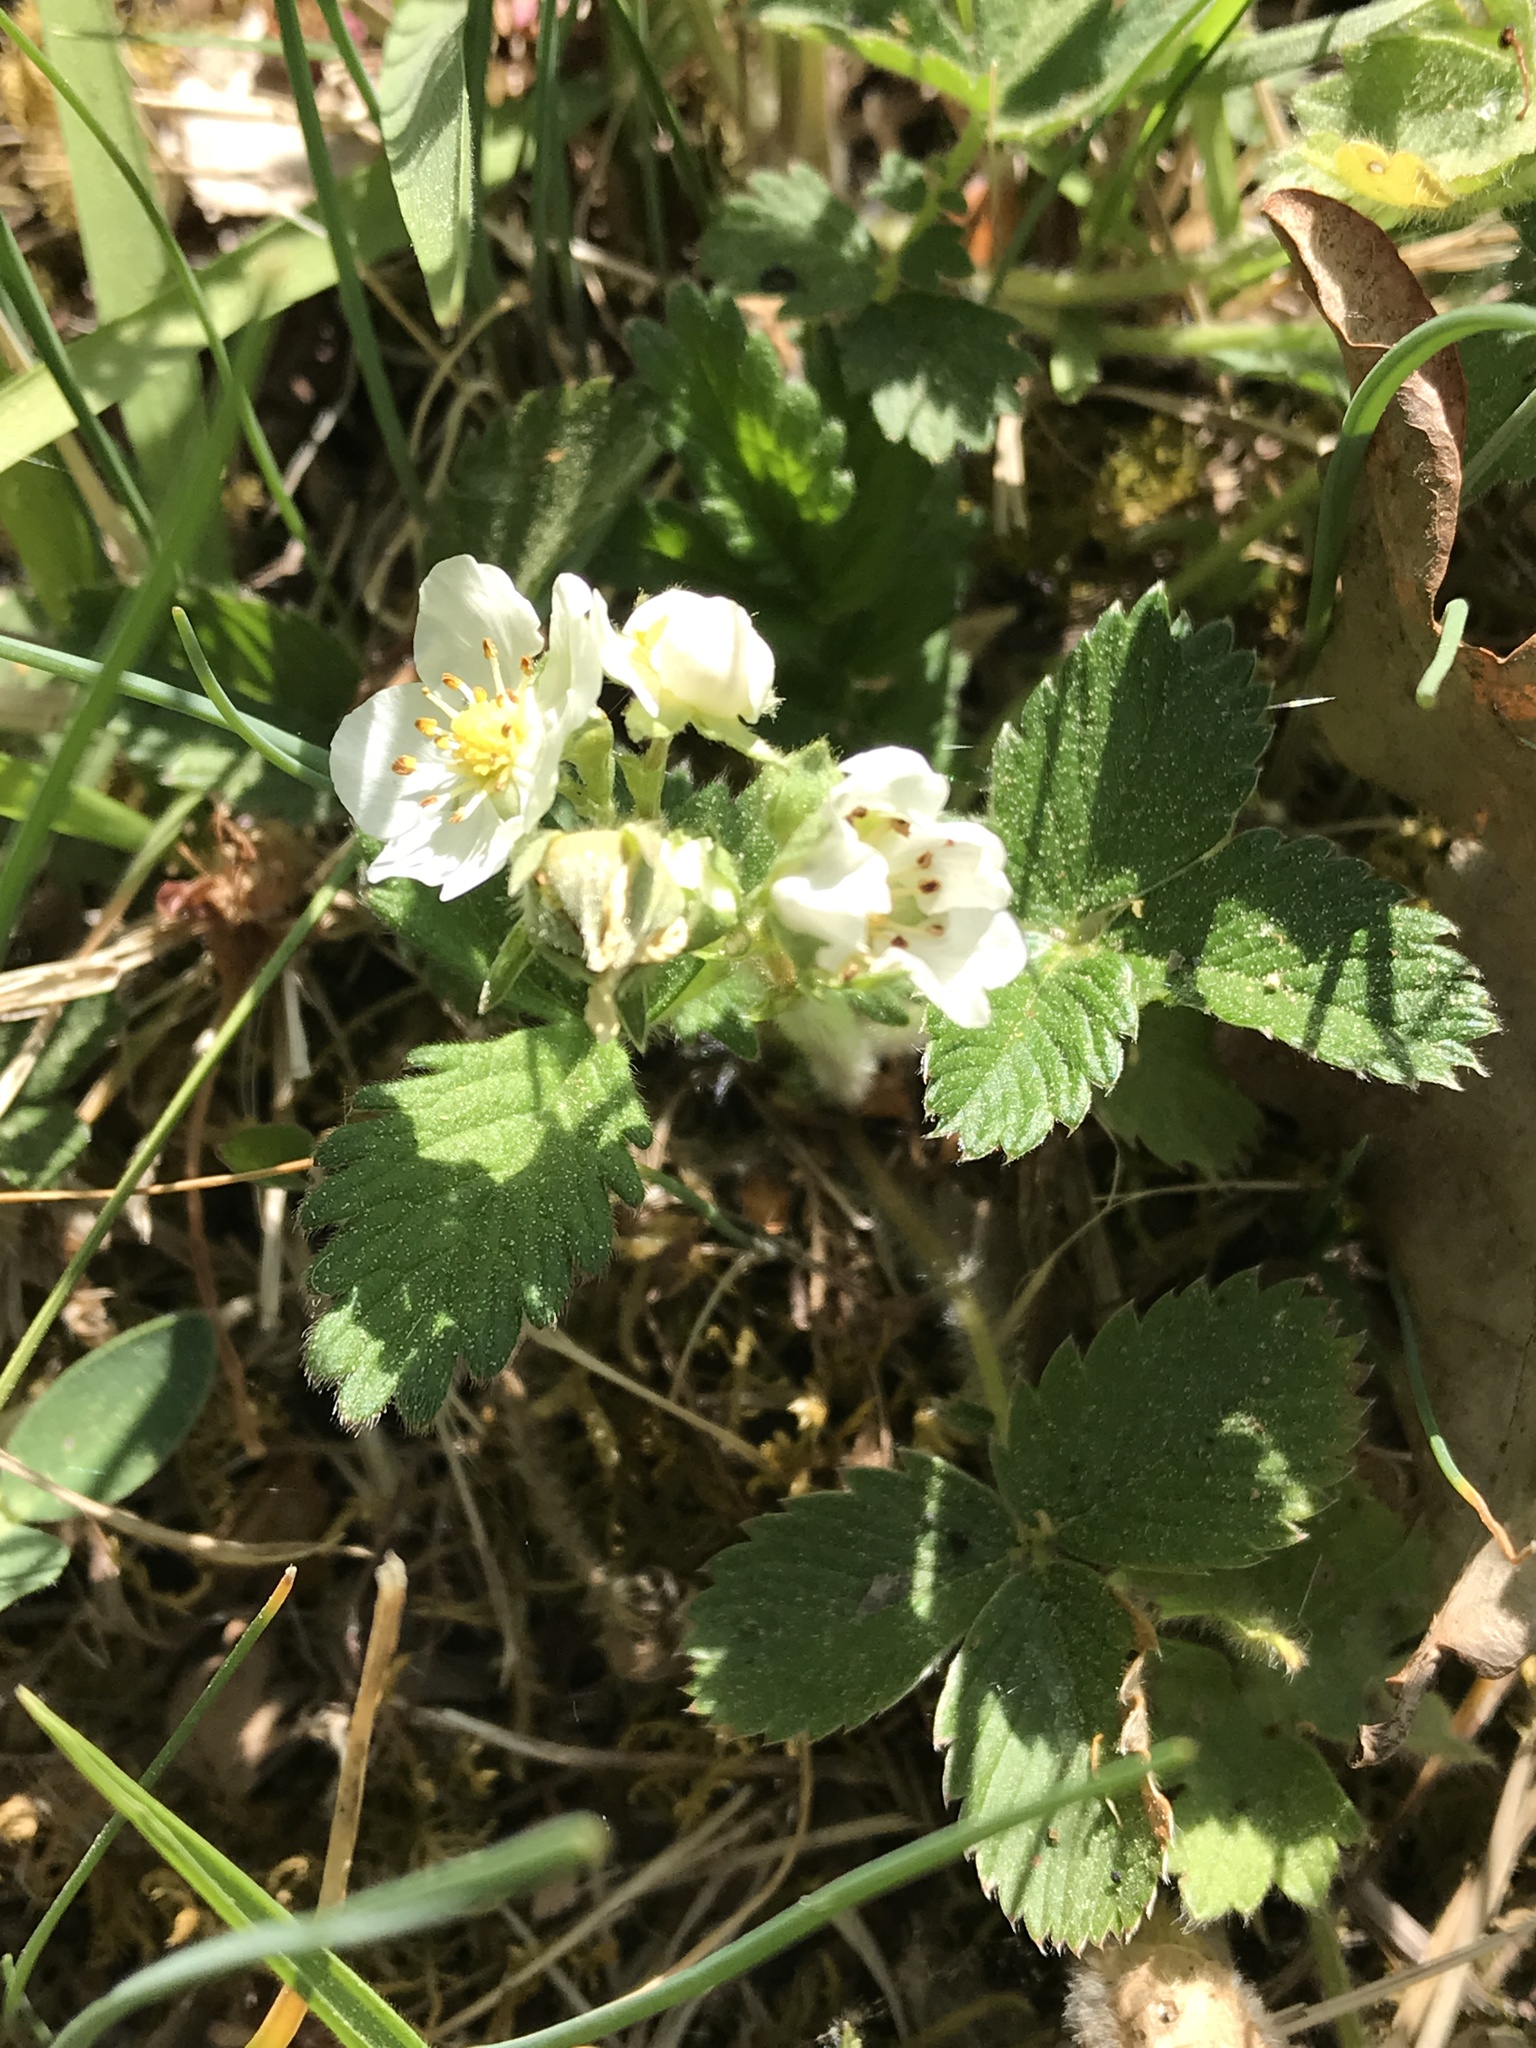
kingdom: Plantae
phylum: Tracheophyta
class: Magnoliopsida
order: Rosales
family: Rosaceae
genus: Fragaria
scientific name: Fragaria vesca
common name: Wild strawberry
